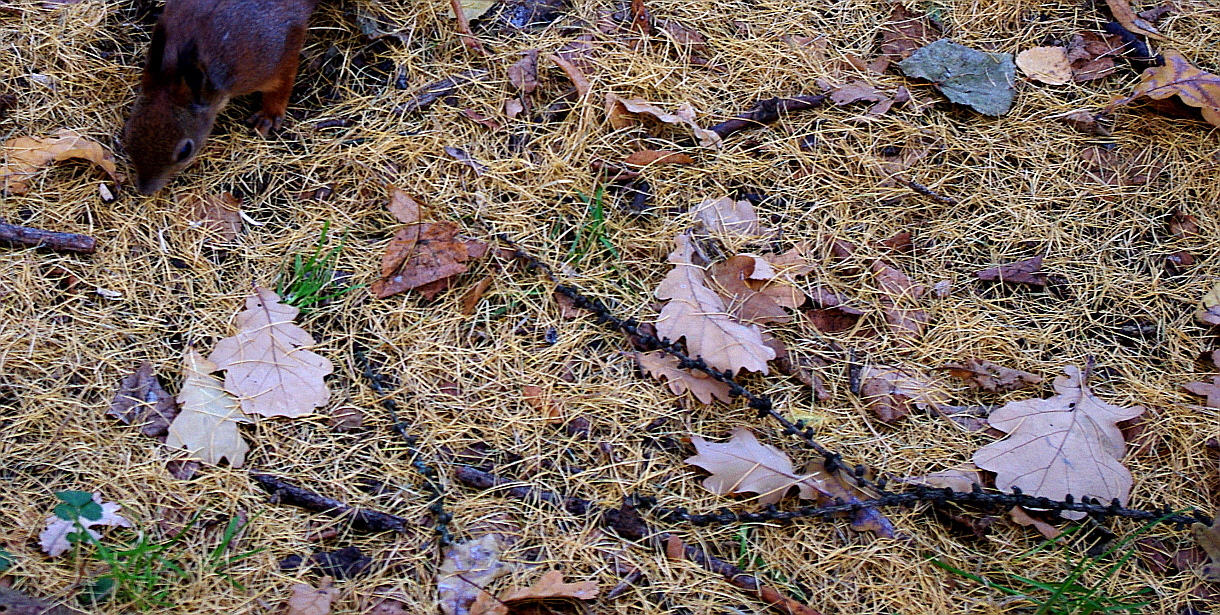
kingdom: Plantae
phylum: Tracheophyta
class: Magnoliopsida
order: Fagales
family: Fagaceae
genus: Quercus
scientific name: Quercus robur
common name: Pedunculate oak
